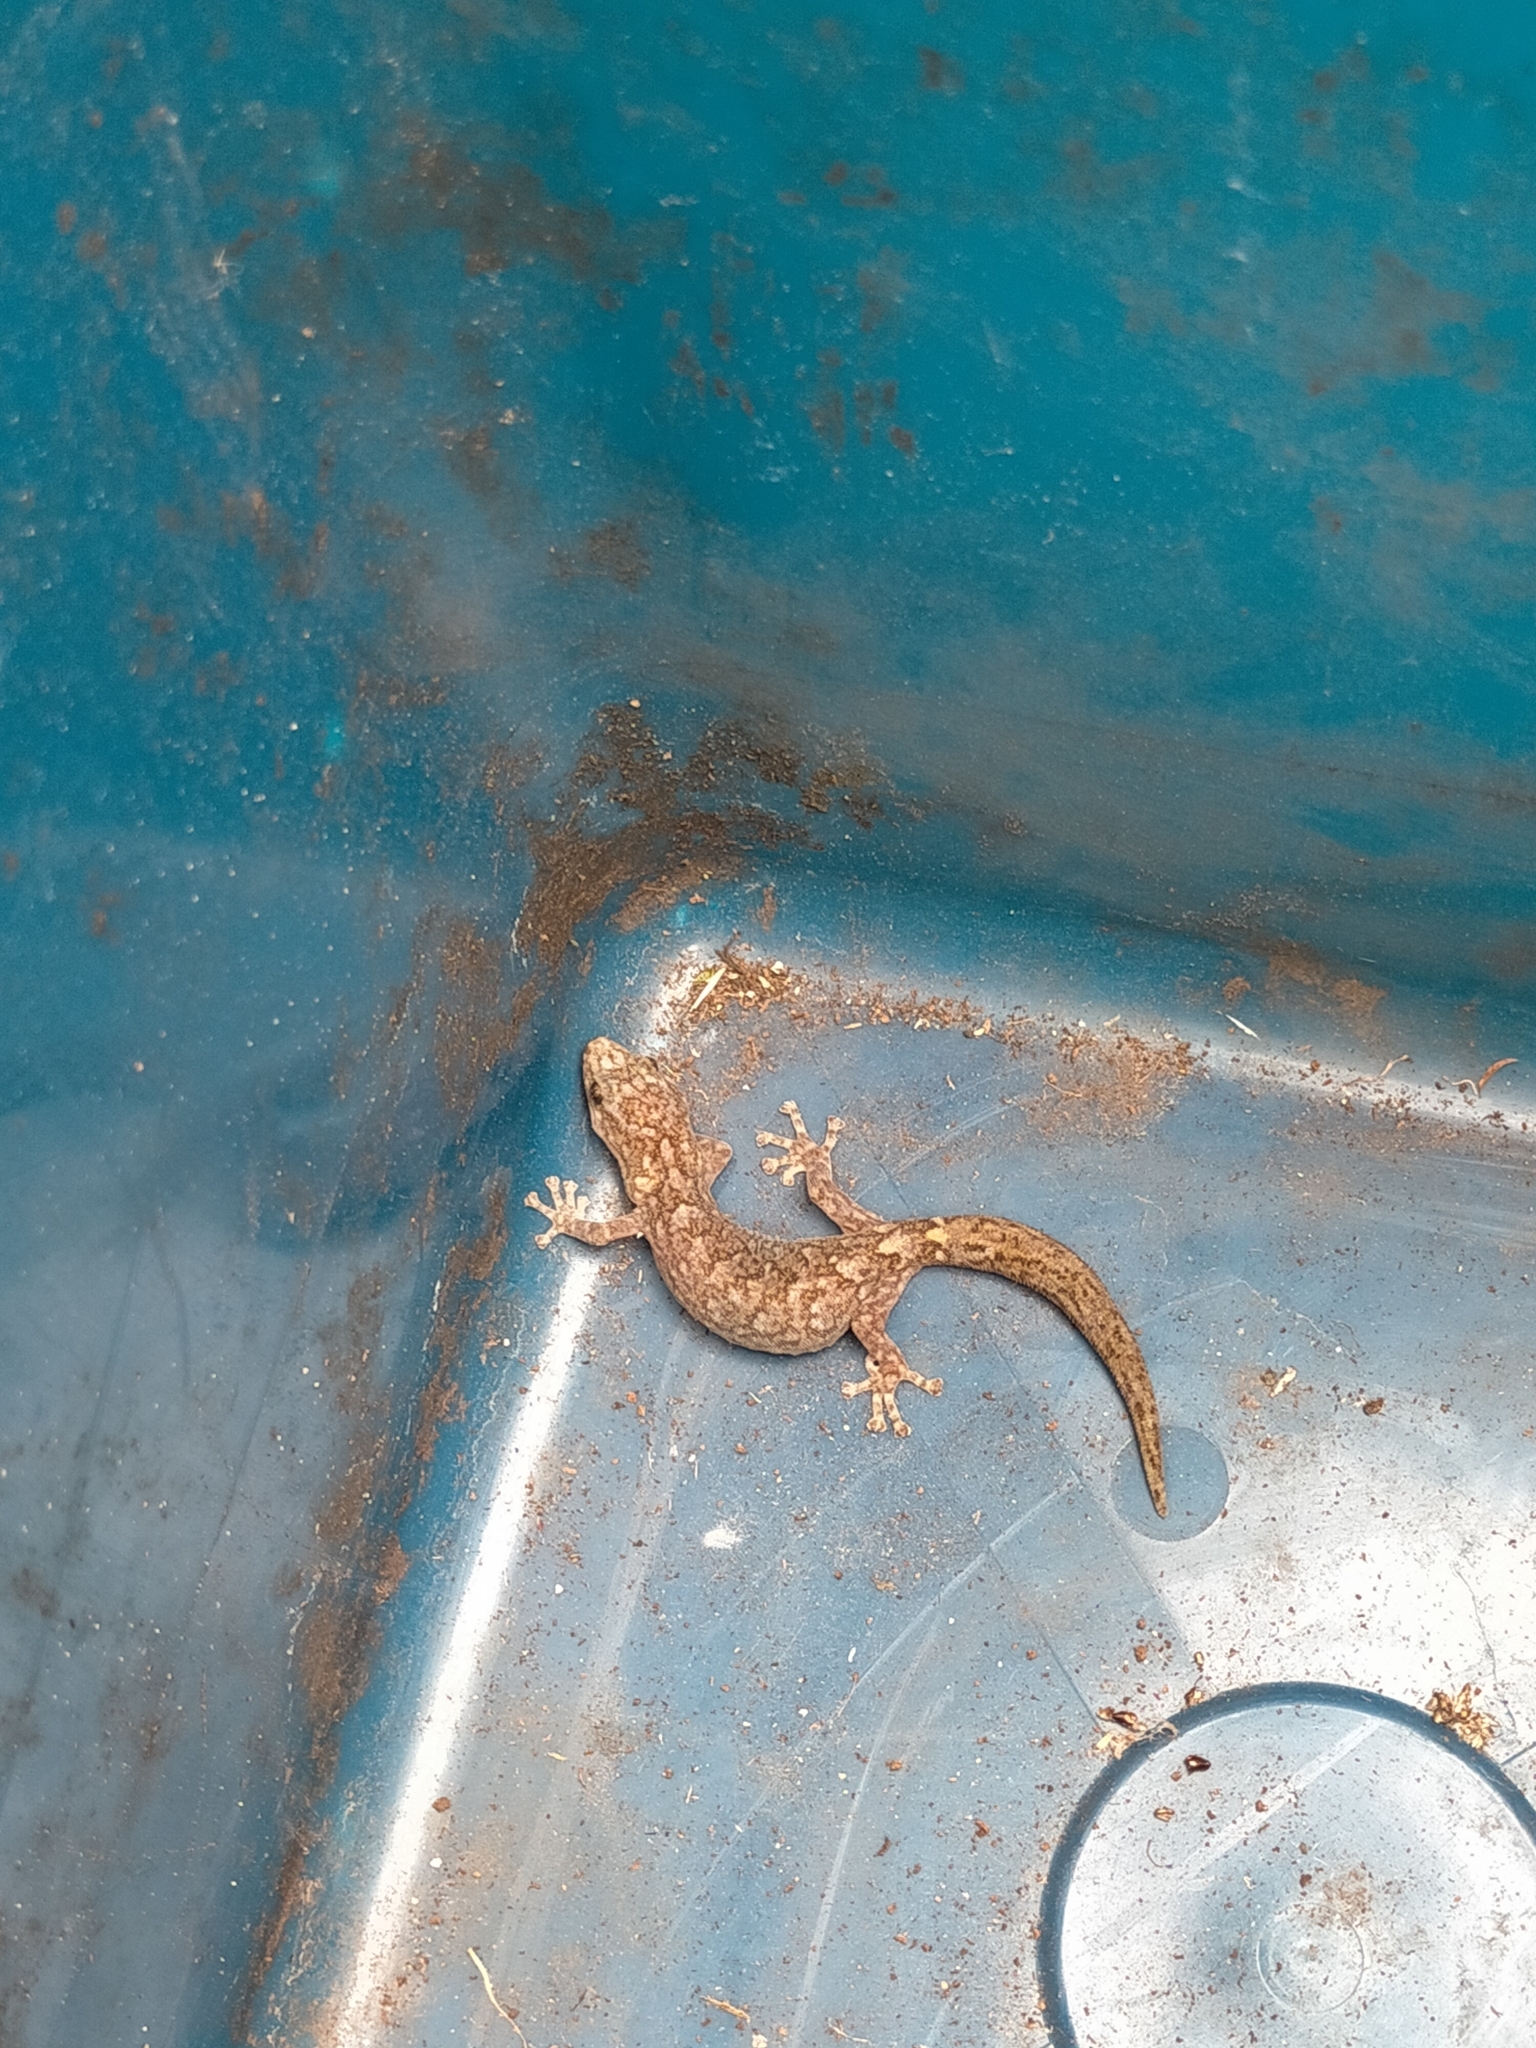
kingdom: Animalia
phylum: Chordata
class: Squamata
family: Gekkonidae
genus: Christinus
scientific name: Christinus marmoratus
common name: Marbled gecko
